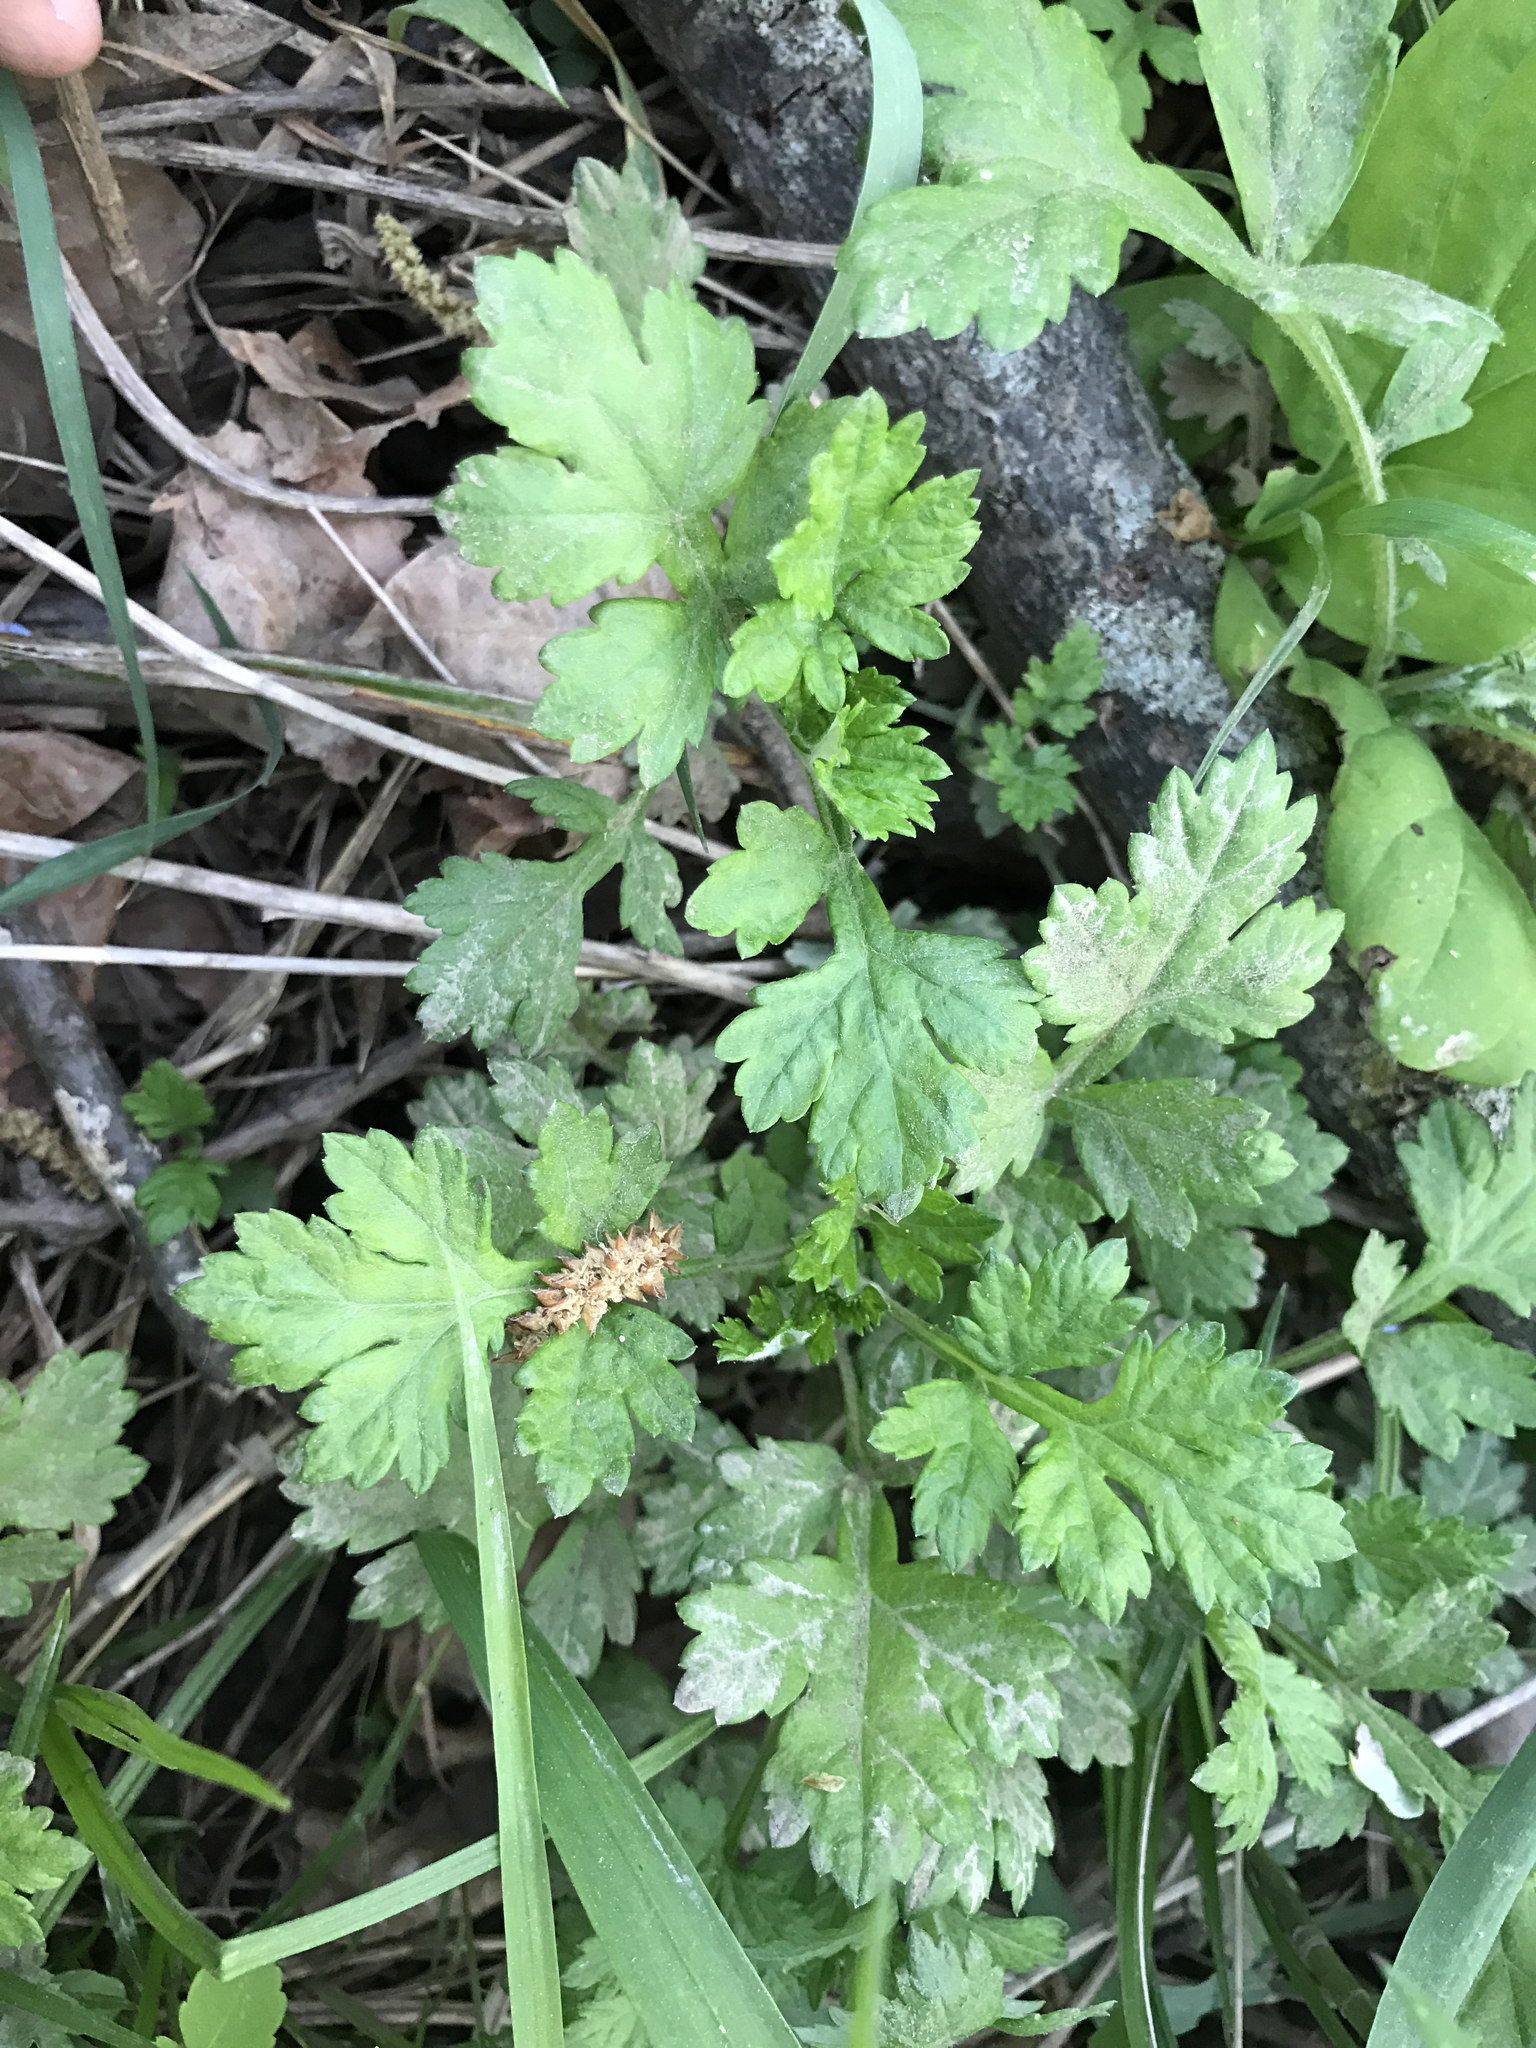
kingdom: Plantae
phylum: Tracheophyta
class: Magnoliopsida
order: Asterales
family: Asteraceae
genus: Artemisia
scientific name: Artemisia vulgaris
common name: Mugwort
